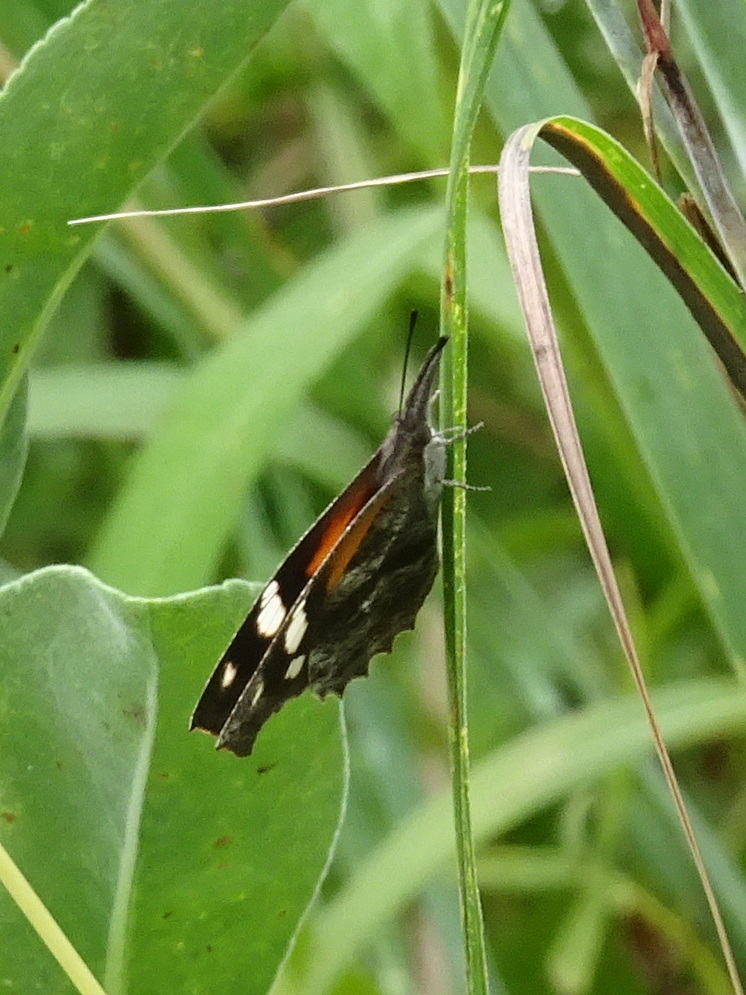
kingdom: Animalia
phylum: Arthropoda
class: Insecta
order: Lepidoptera
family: Nymphalidae
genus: Libytheana
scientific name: Libytheana carinenta
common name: American snout
